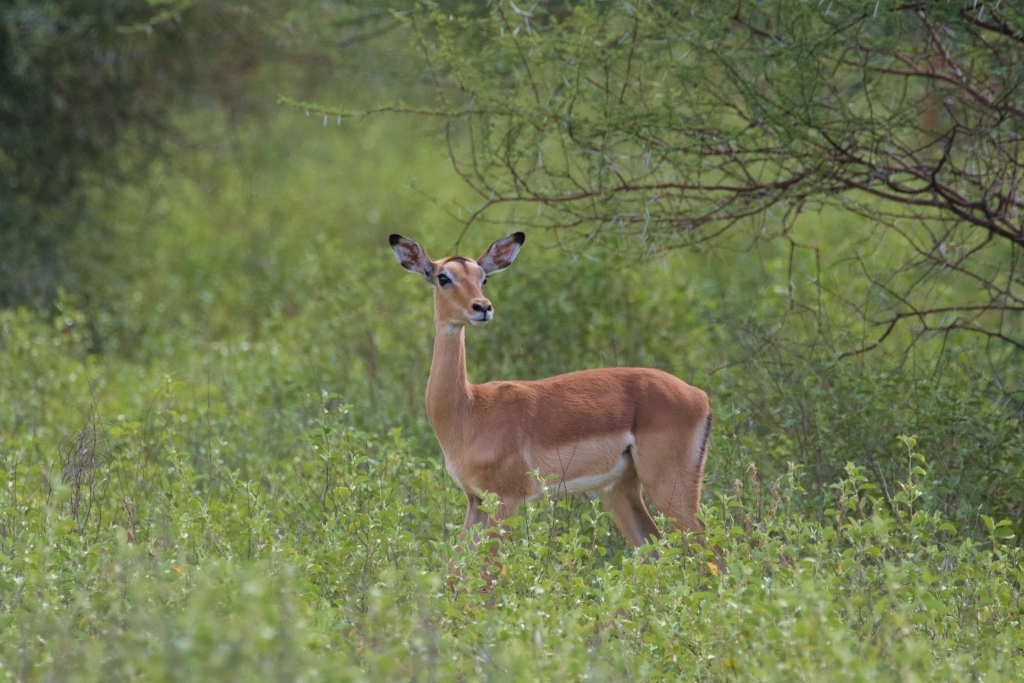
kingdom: Animalia
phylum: Chordata
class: Mammalia
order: Artiodactyla
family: Bovidae
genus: Aepyceros
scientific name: Aepyceros melampus
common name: Impala
